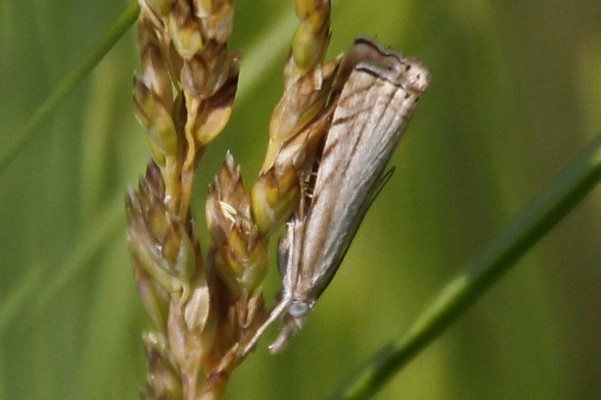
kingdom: Animalia
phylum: Arthropoda
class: Insecta
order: Lepidoptera
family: Crambidae
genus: Chrysoteuchia
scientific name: Chrysoteuchia topiarius
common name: Topiary grass-veneer
